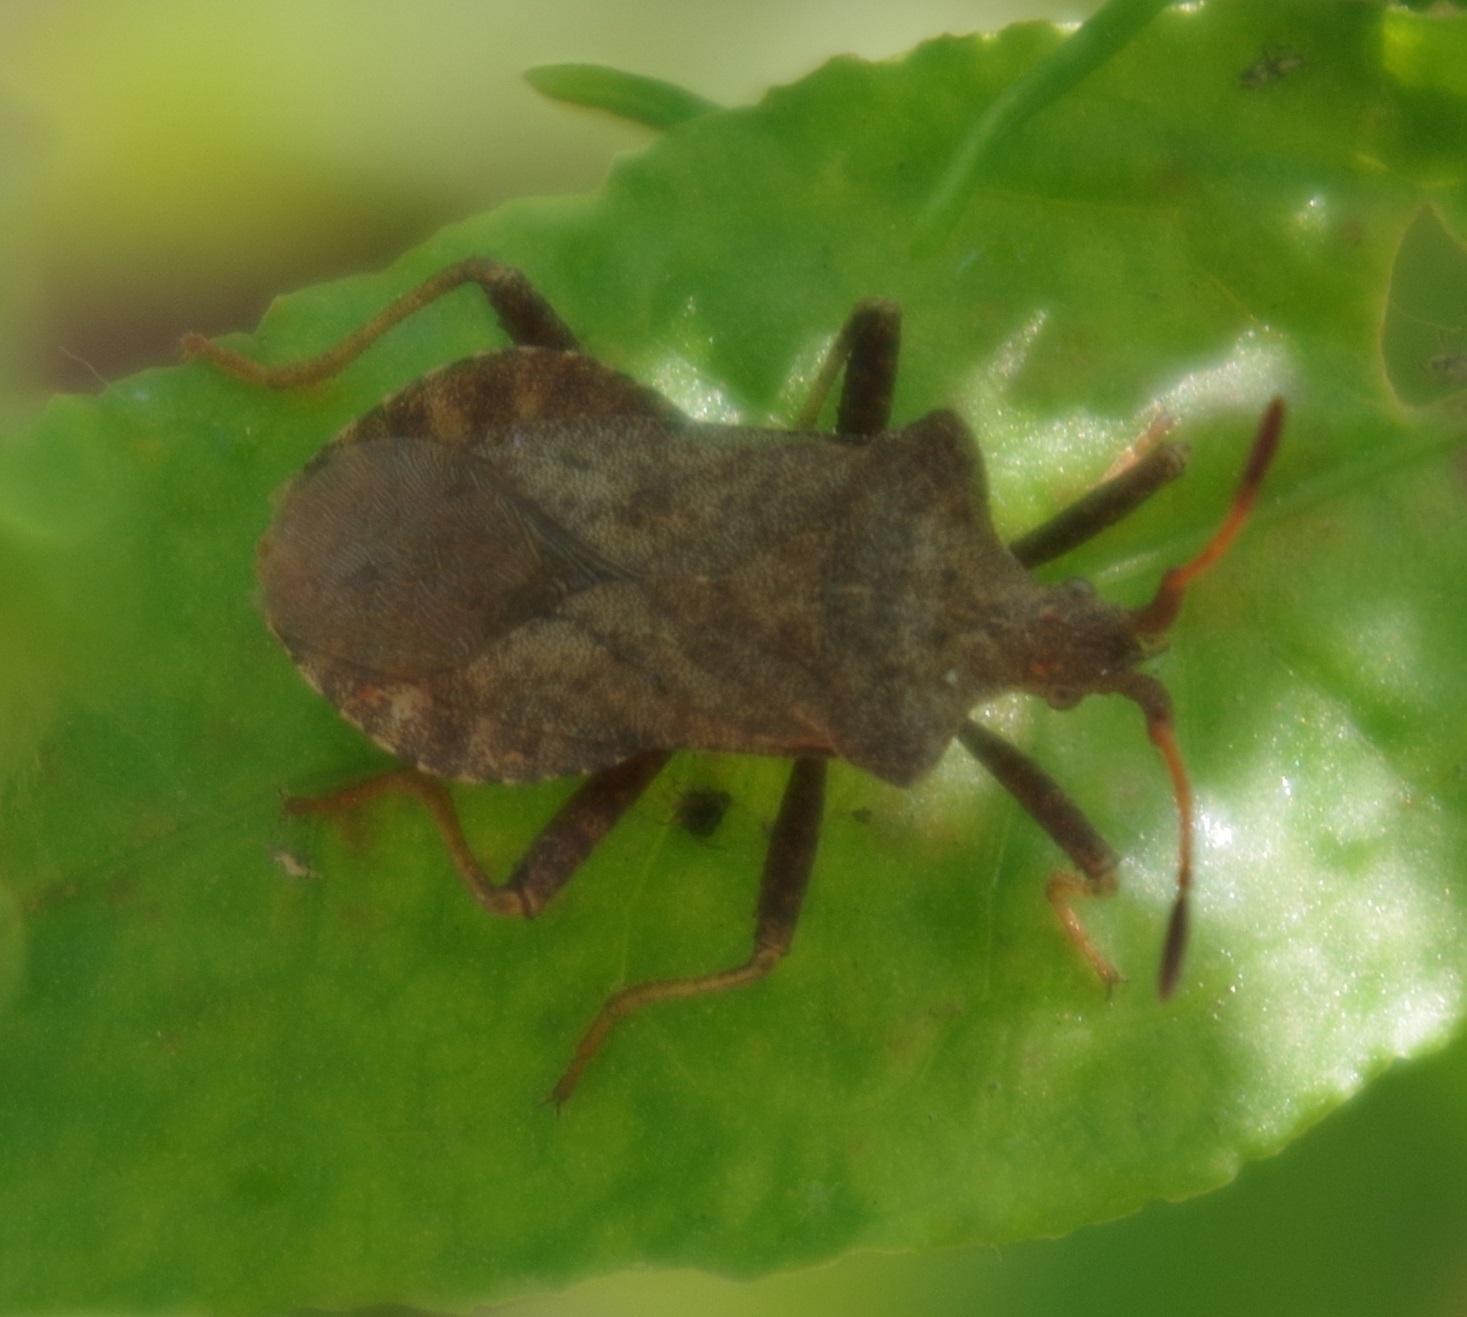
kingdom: Animalia
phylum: Arthropoda
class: Insecta
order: Hemiptera
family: Coreidae
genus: Coreus
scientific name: Coreus marginatus
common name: Dock bug
